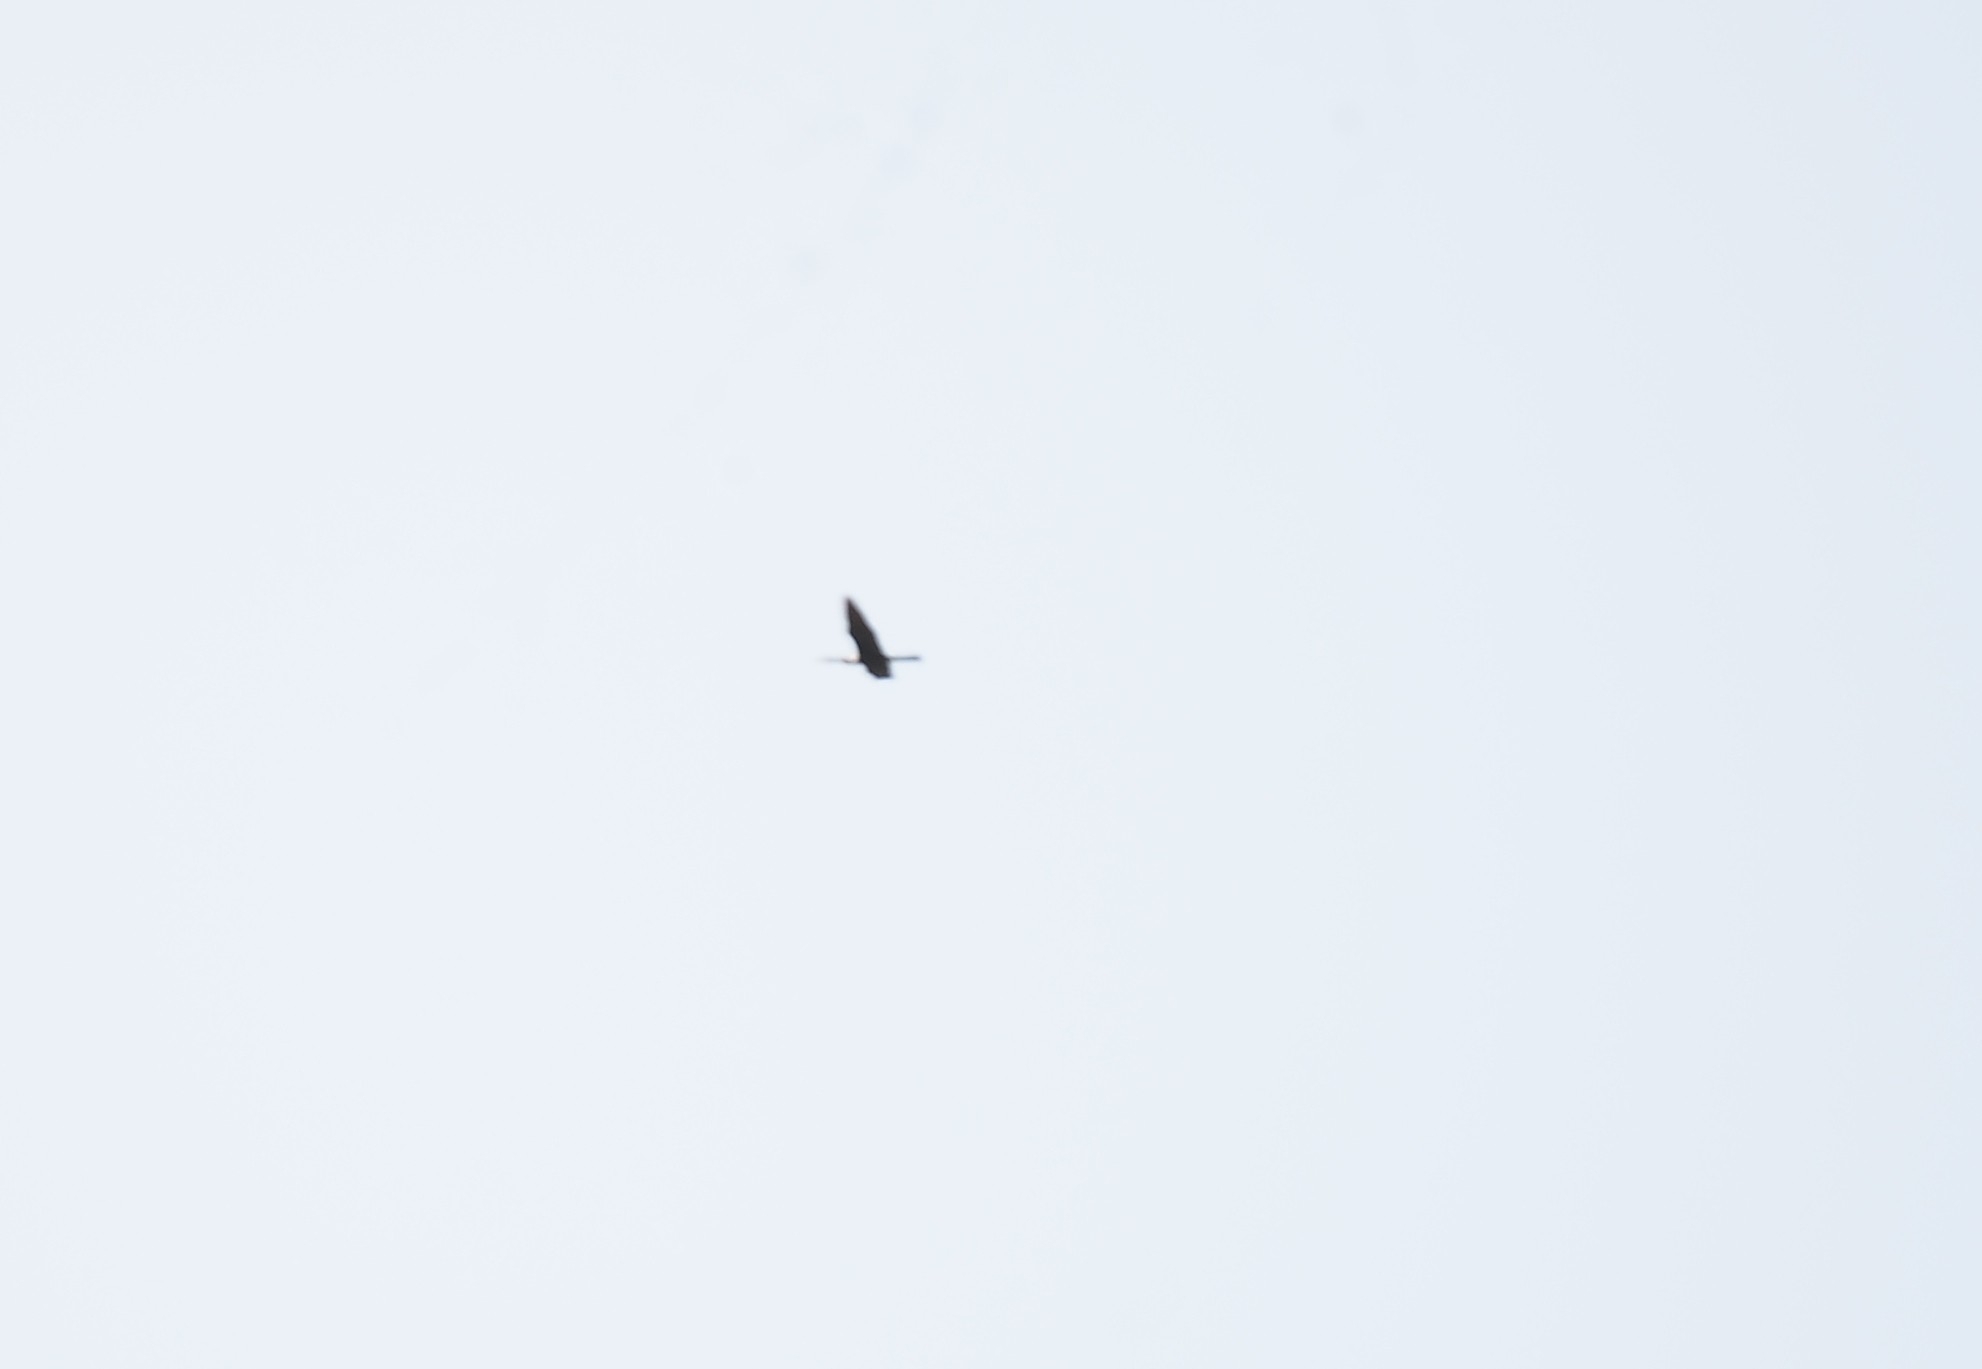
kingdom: Animalia
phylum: Chordata
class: Aves
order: Suliformes
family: Anhingidae
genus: Anhinga
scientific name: Anhinga melanogaster
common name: Oriental darter
